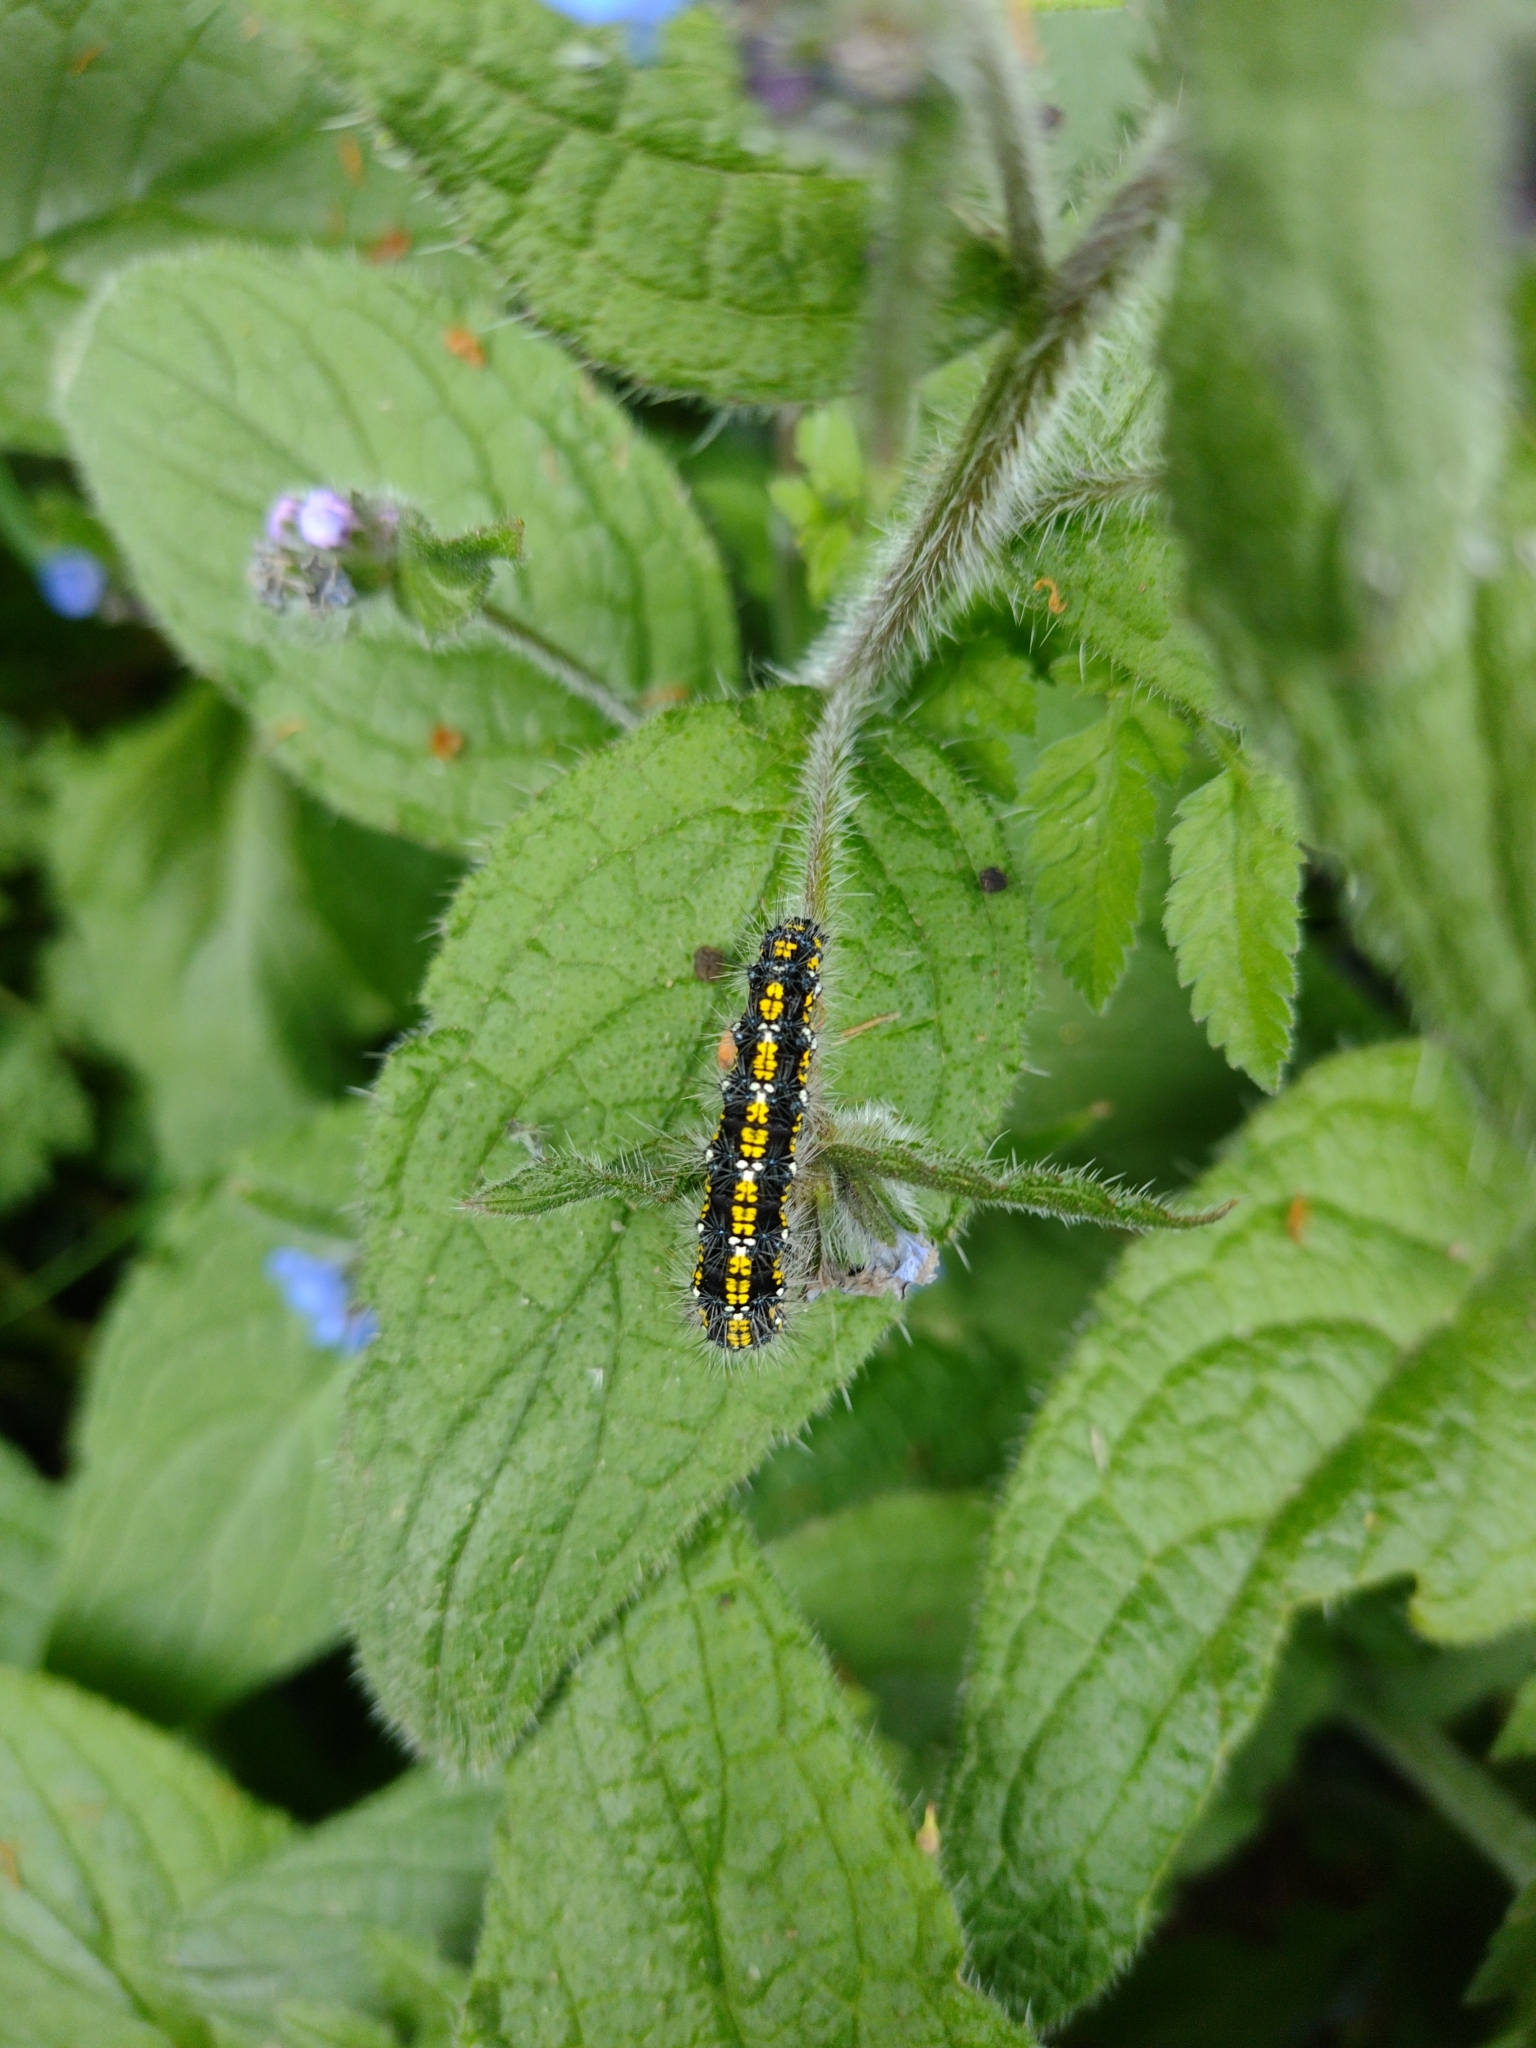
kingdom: Animalia
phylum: Arthropoda
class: Insecta
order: Lepidoptera
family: Erebidae
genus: Callimorpha
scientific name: Callimorpha dominula
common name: Scarlet tiger
